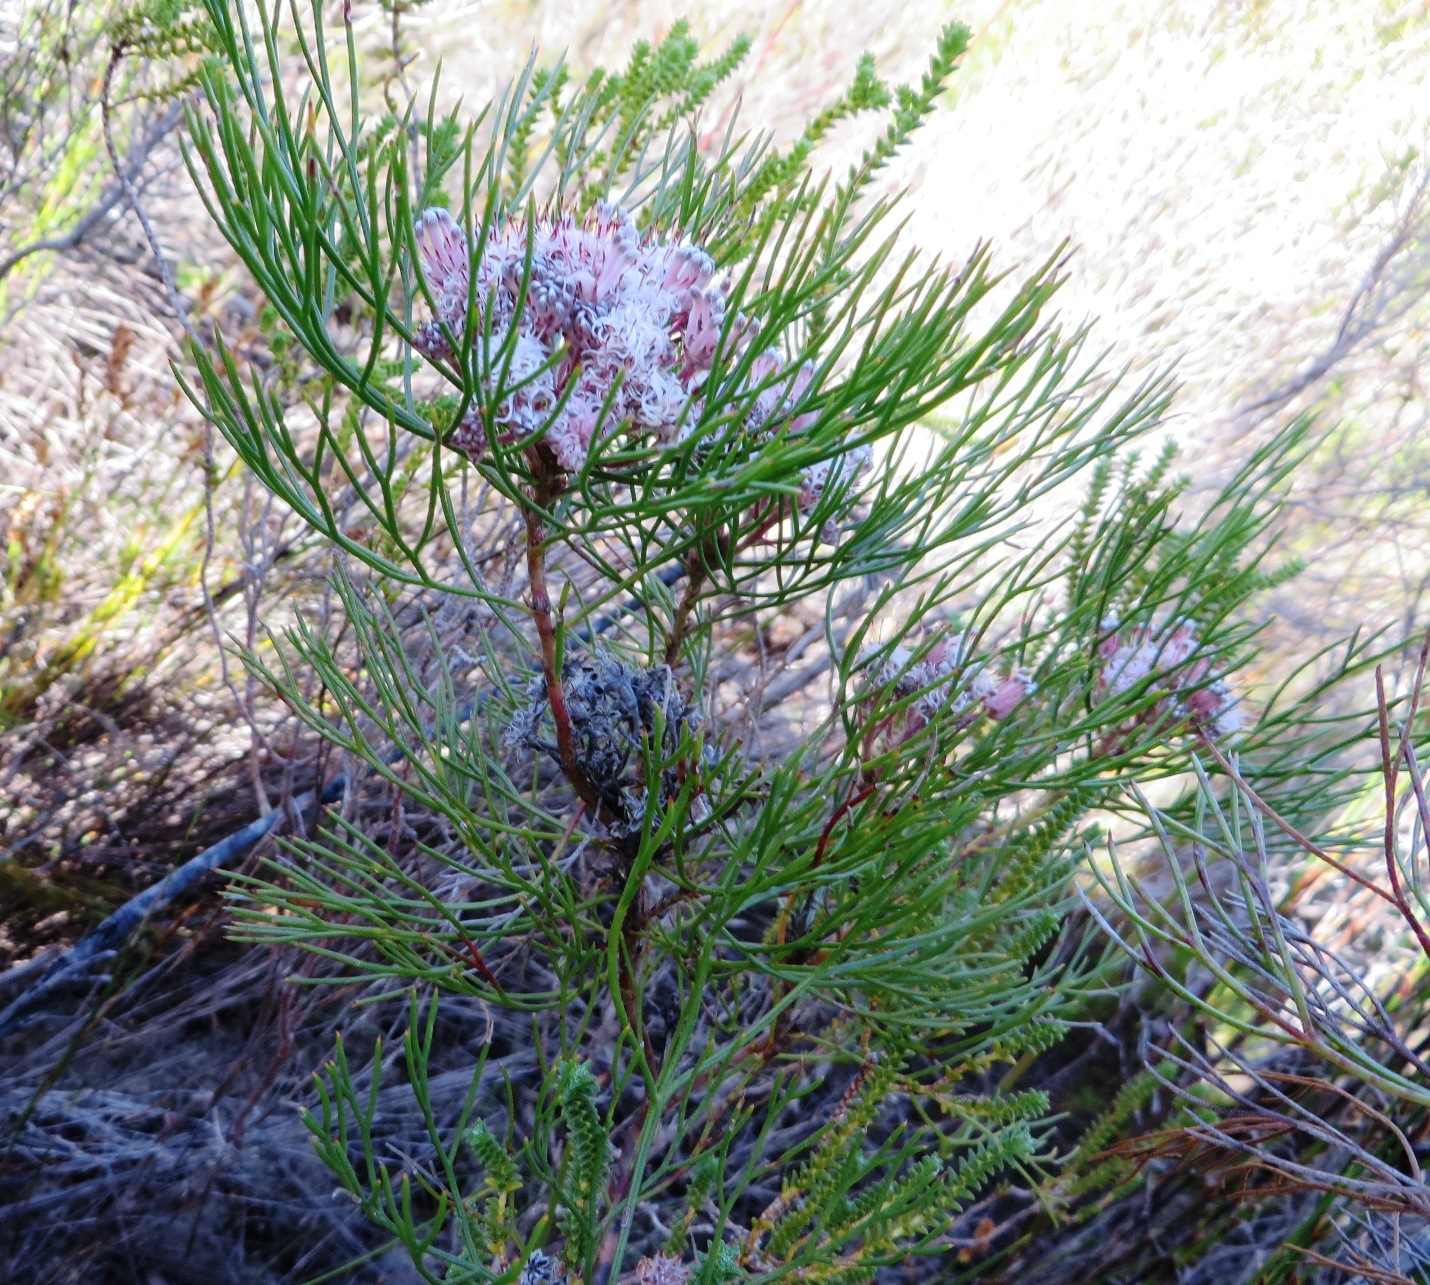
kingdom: Plantae
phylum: Tracheophyta
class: Magnoliopsida
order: Proteales
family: Proteaceae
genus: Serruria
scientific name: Serruria fasciflora
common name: Common pin spiderhead
